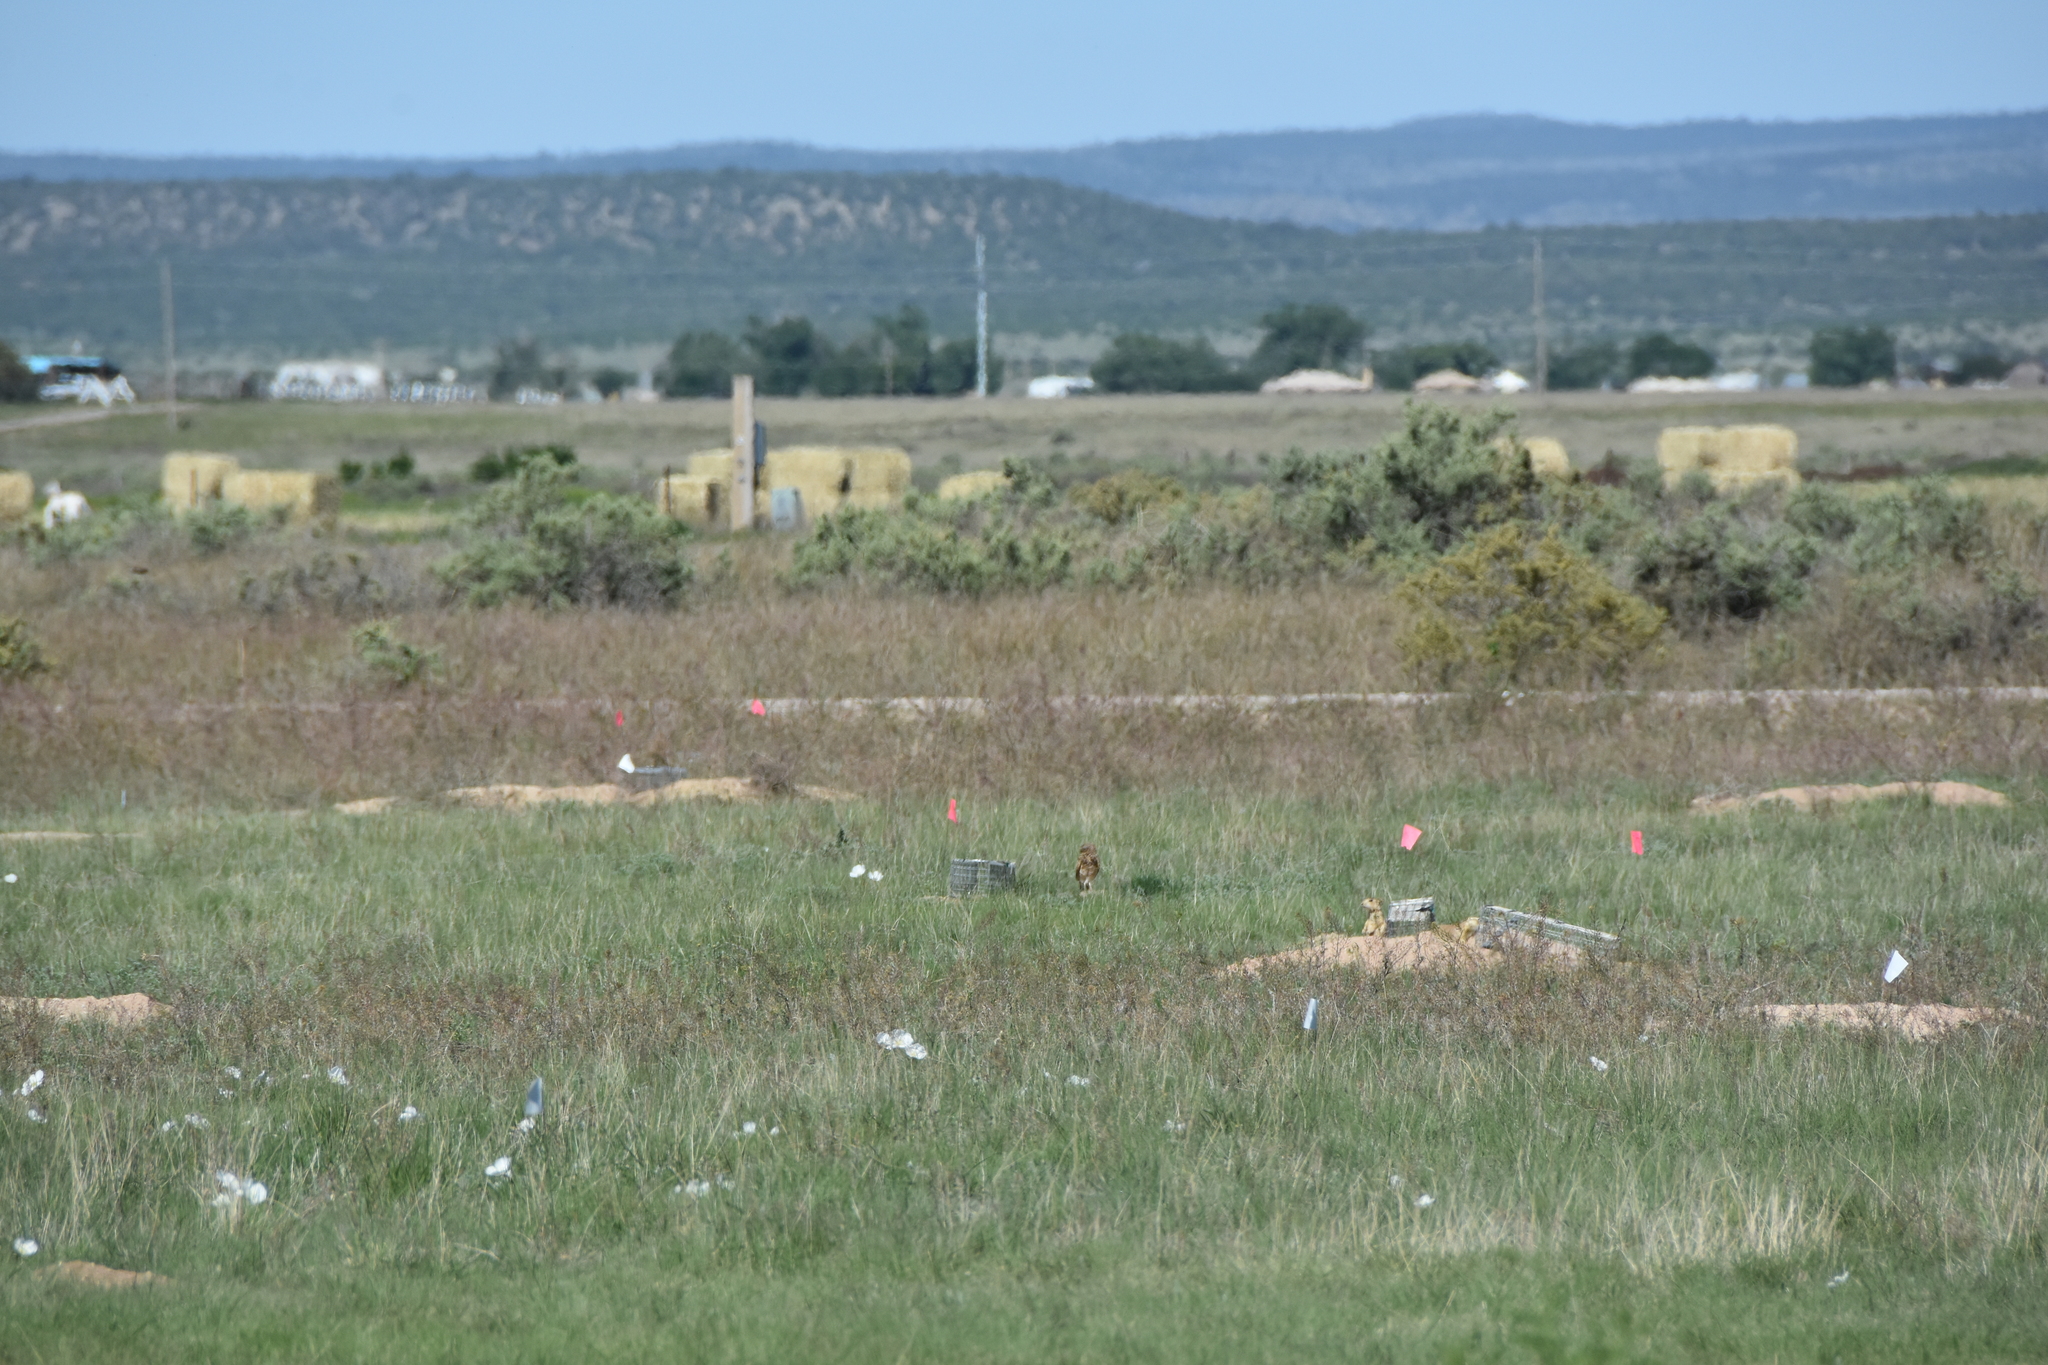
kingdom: Animalia
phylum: Chordata
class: Aves
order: Strigiformes
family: Strigidae
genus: Athene
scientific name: Athene cunicularia
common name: Burrowing owl
